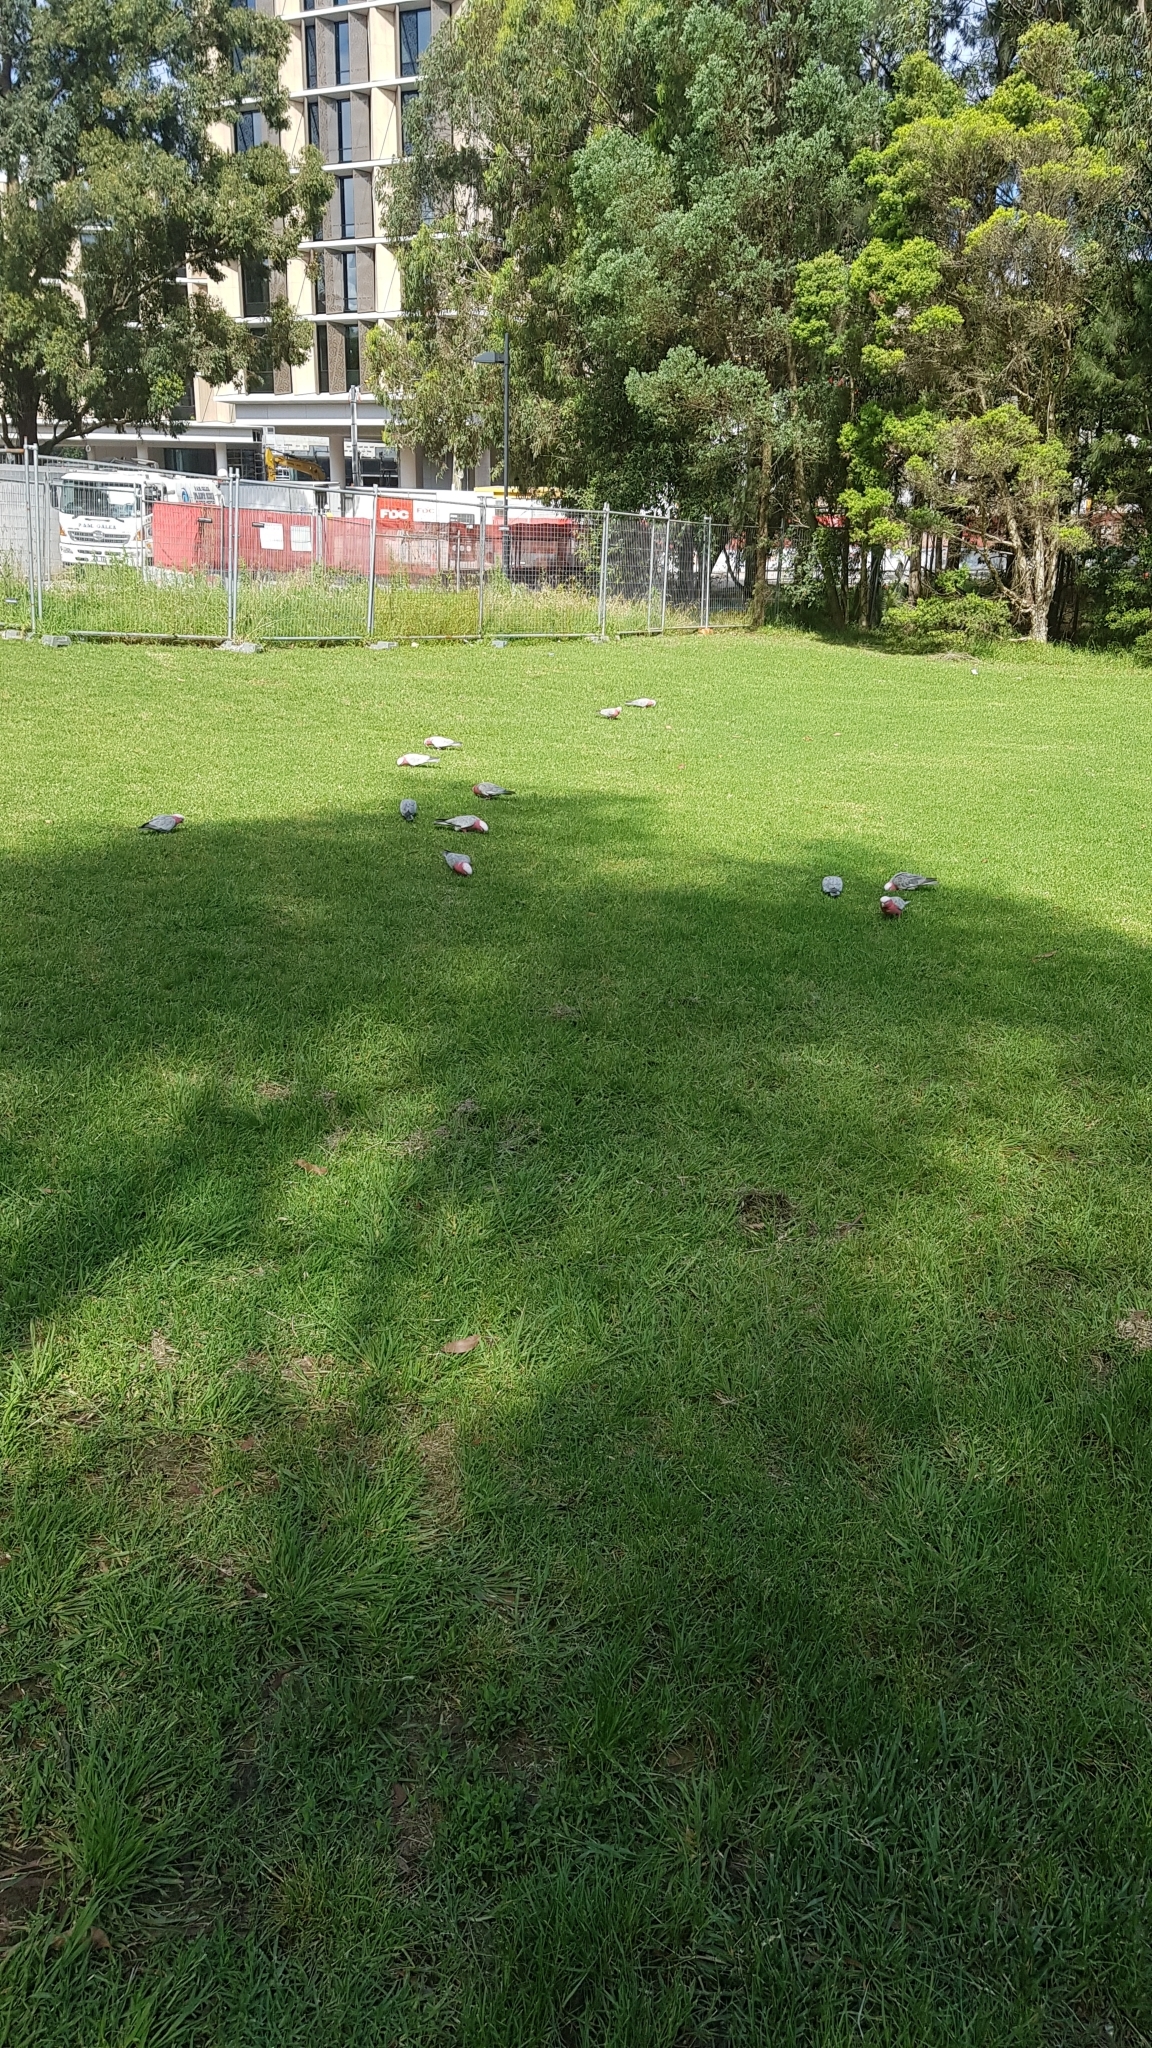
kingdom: Animalia
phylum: Chordata
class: Aves
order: Psittaciformes
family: Psittacidae
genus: Eolophus
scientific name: Eolophus roseicapilla
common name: Galah
